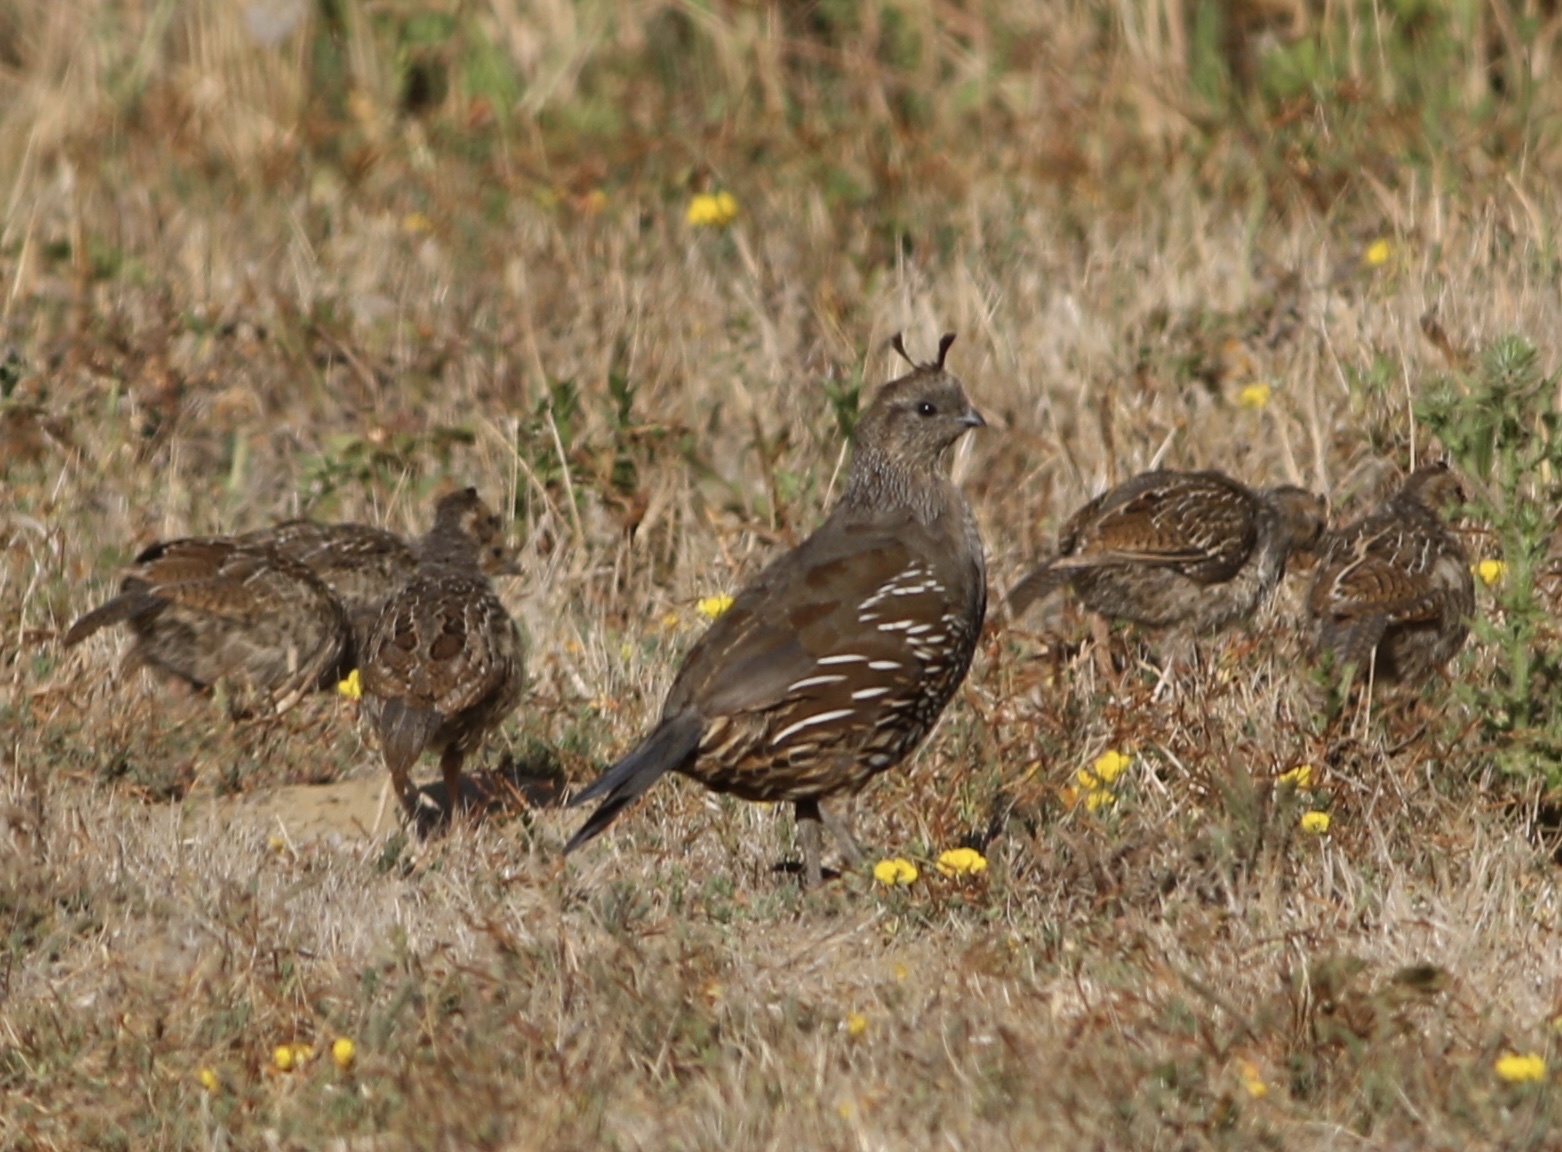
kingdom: Animalia
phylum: Chordata
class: Aves
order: Galliformes
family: Odontophoridae
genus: Callipepla
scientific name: Callipepla californica
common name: California quail
